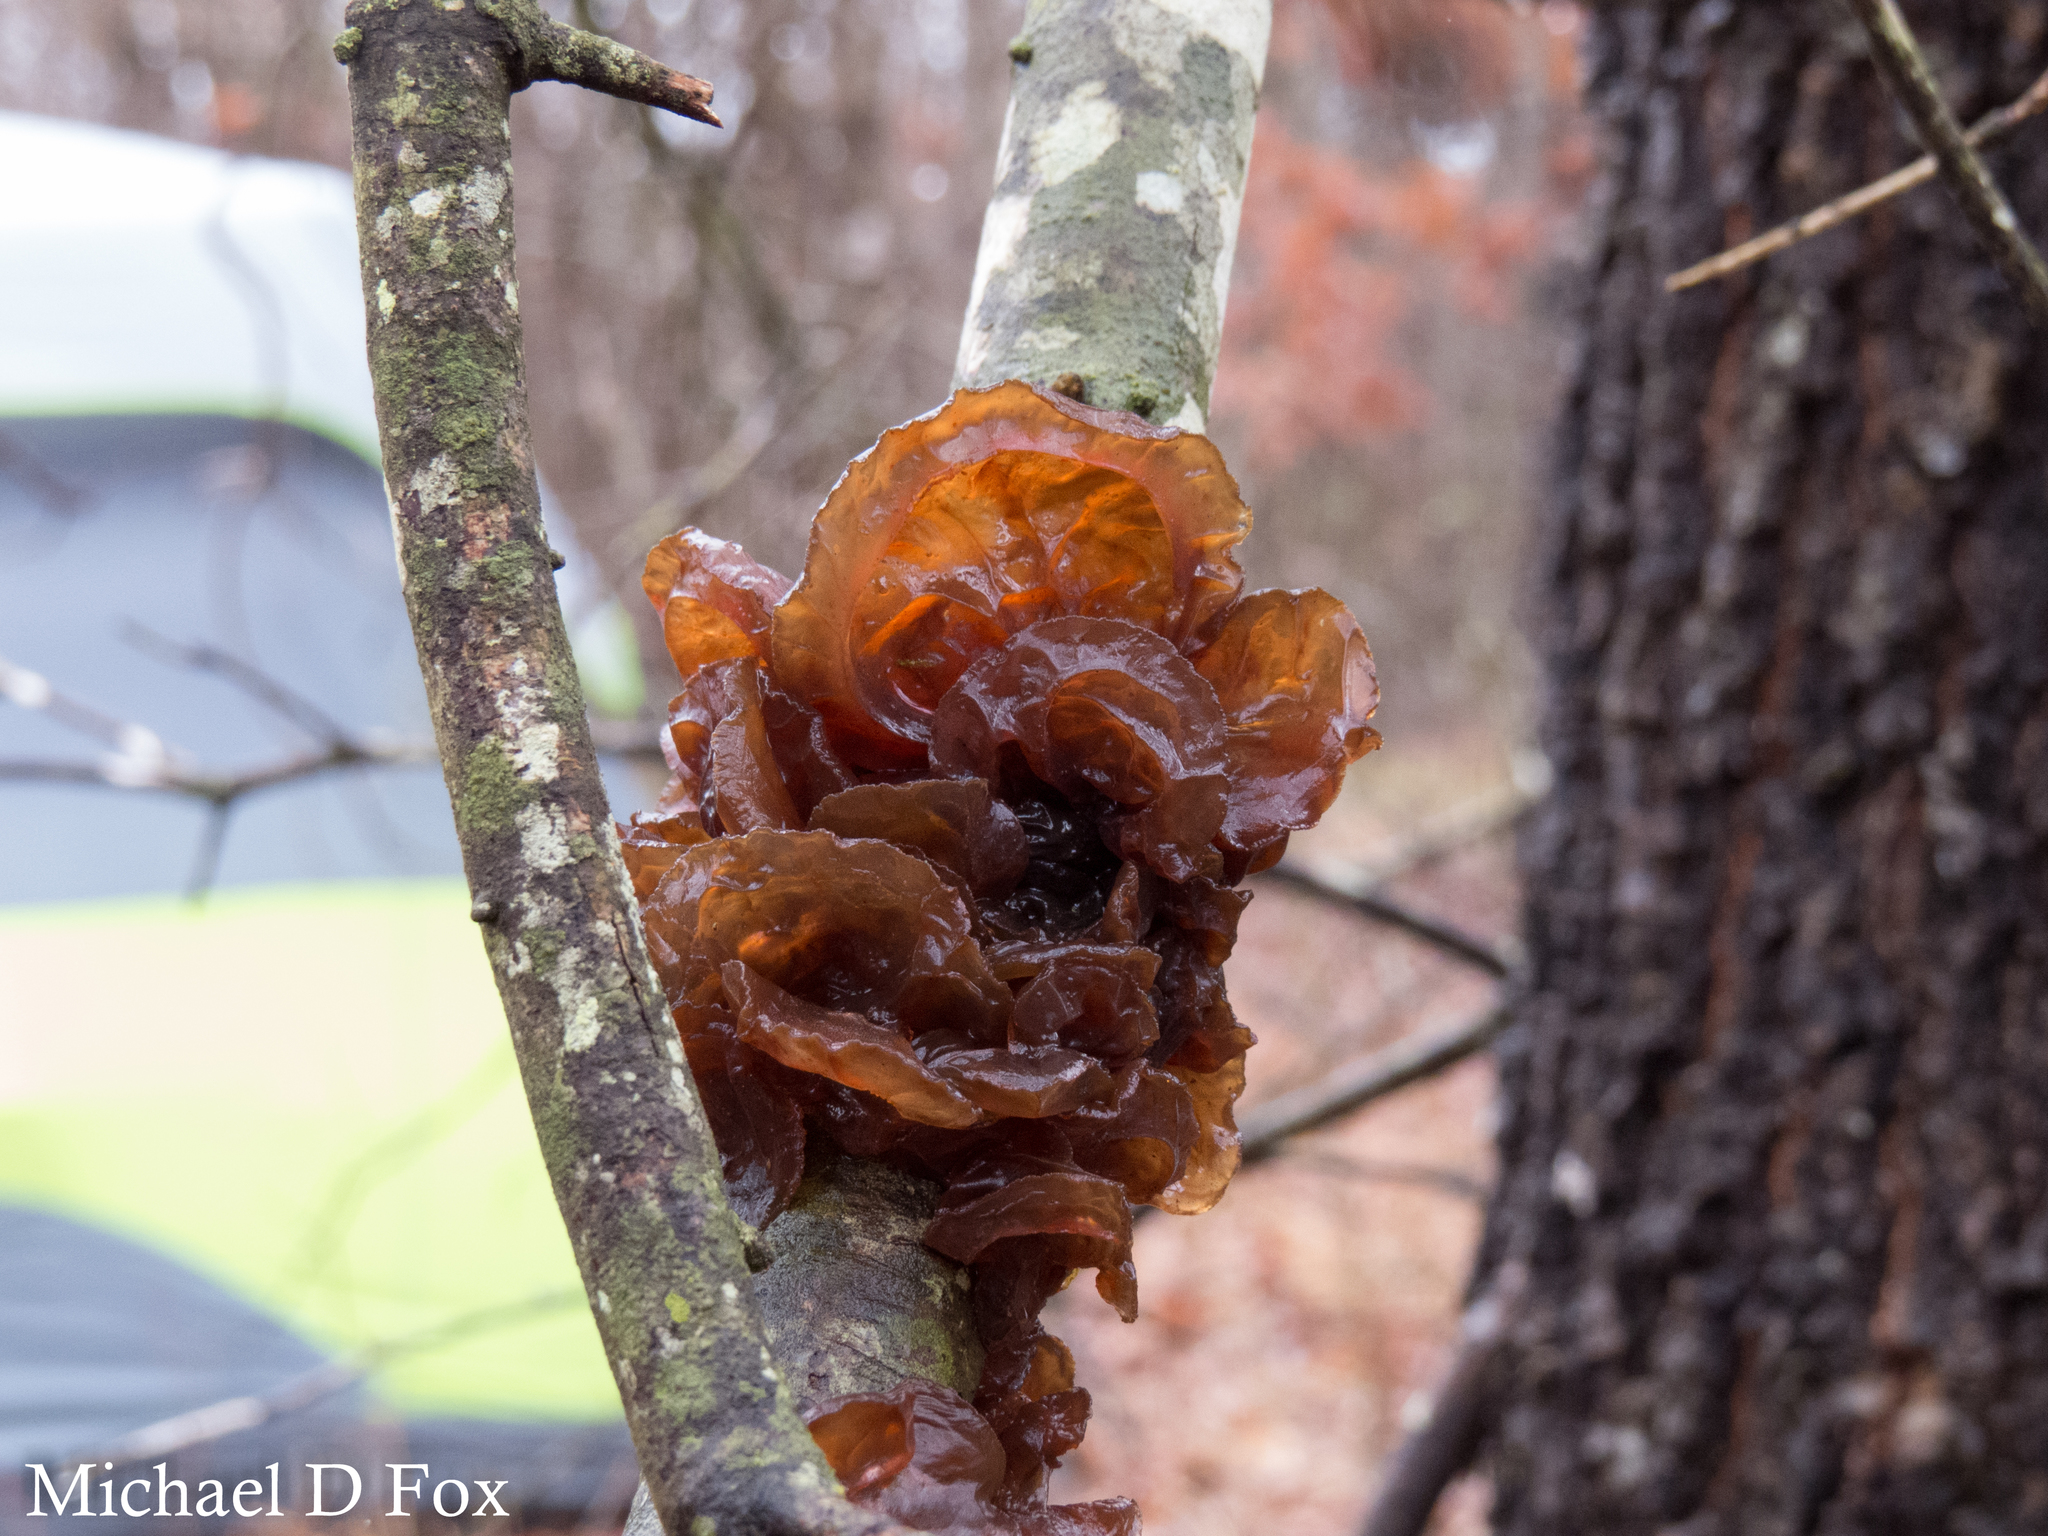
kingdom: Fungi
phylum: Basidiomycota
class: Tremellomycetes
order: Tremellales
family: Tremellaceae
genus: Phaeotremella
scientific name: Phaeotremella foliacea
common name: Leafy brain
